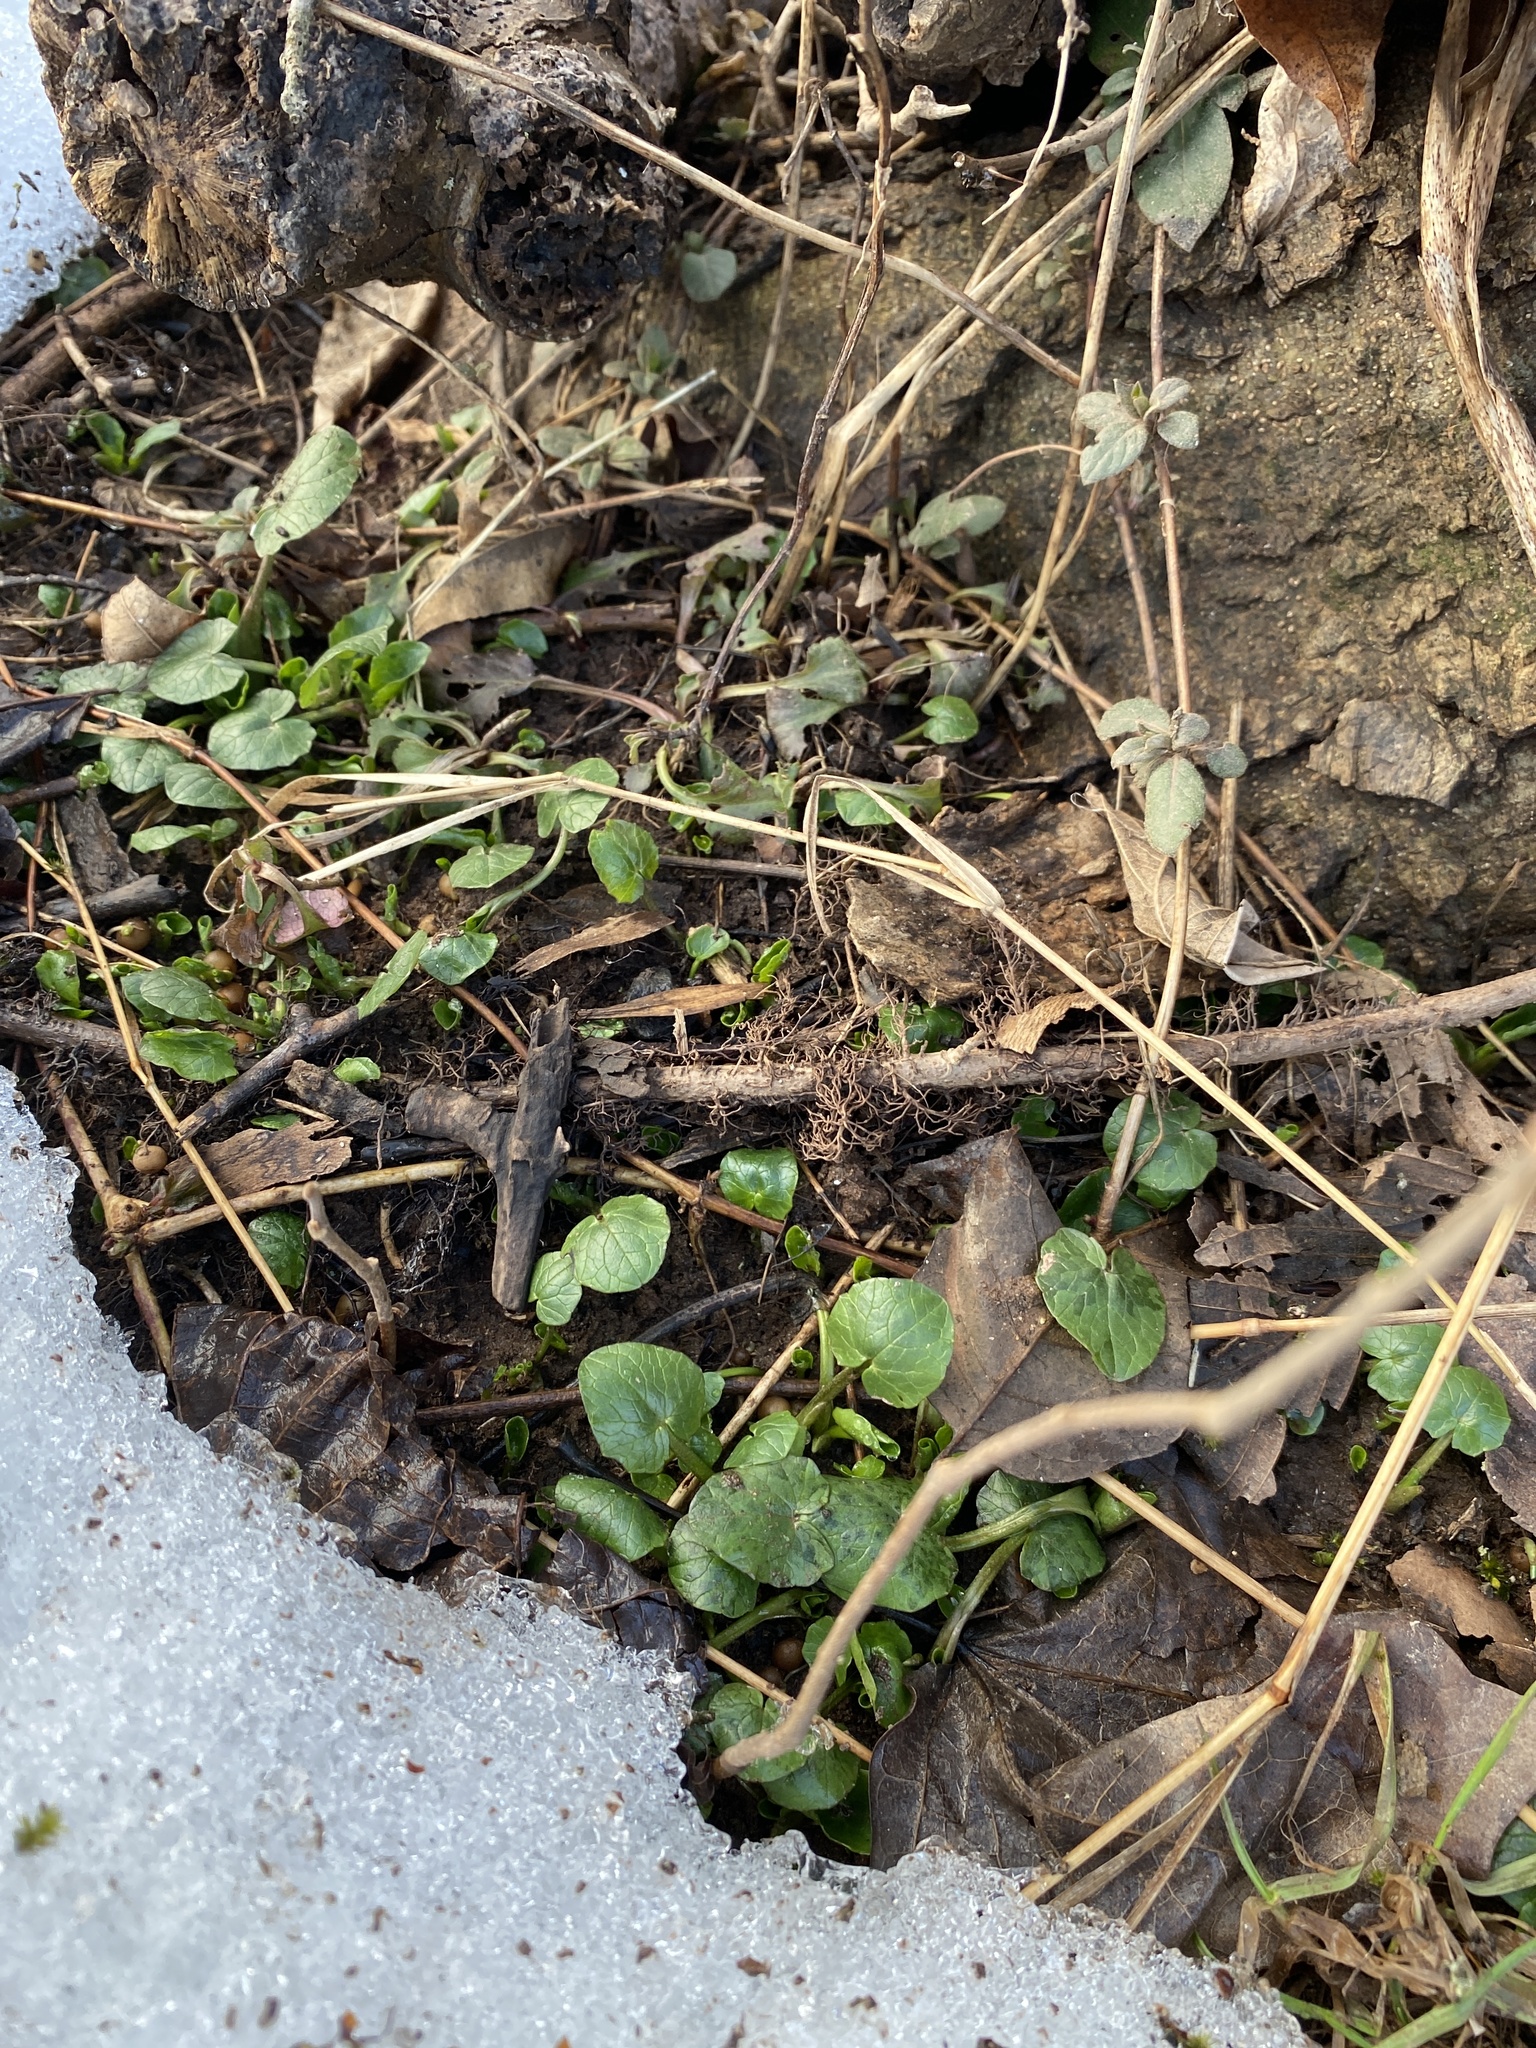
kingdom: Plantae
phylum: Tracheophyta
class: Magnoliopsida
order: Ranunculales
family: Ranunculaceae
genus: Ficaria
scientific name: Ficaria verna
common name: Lesser celandine
